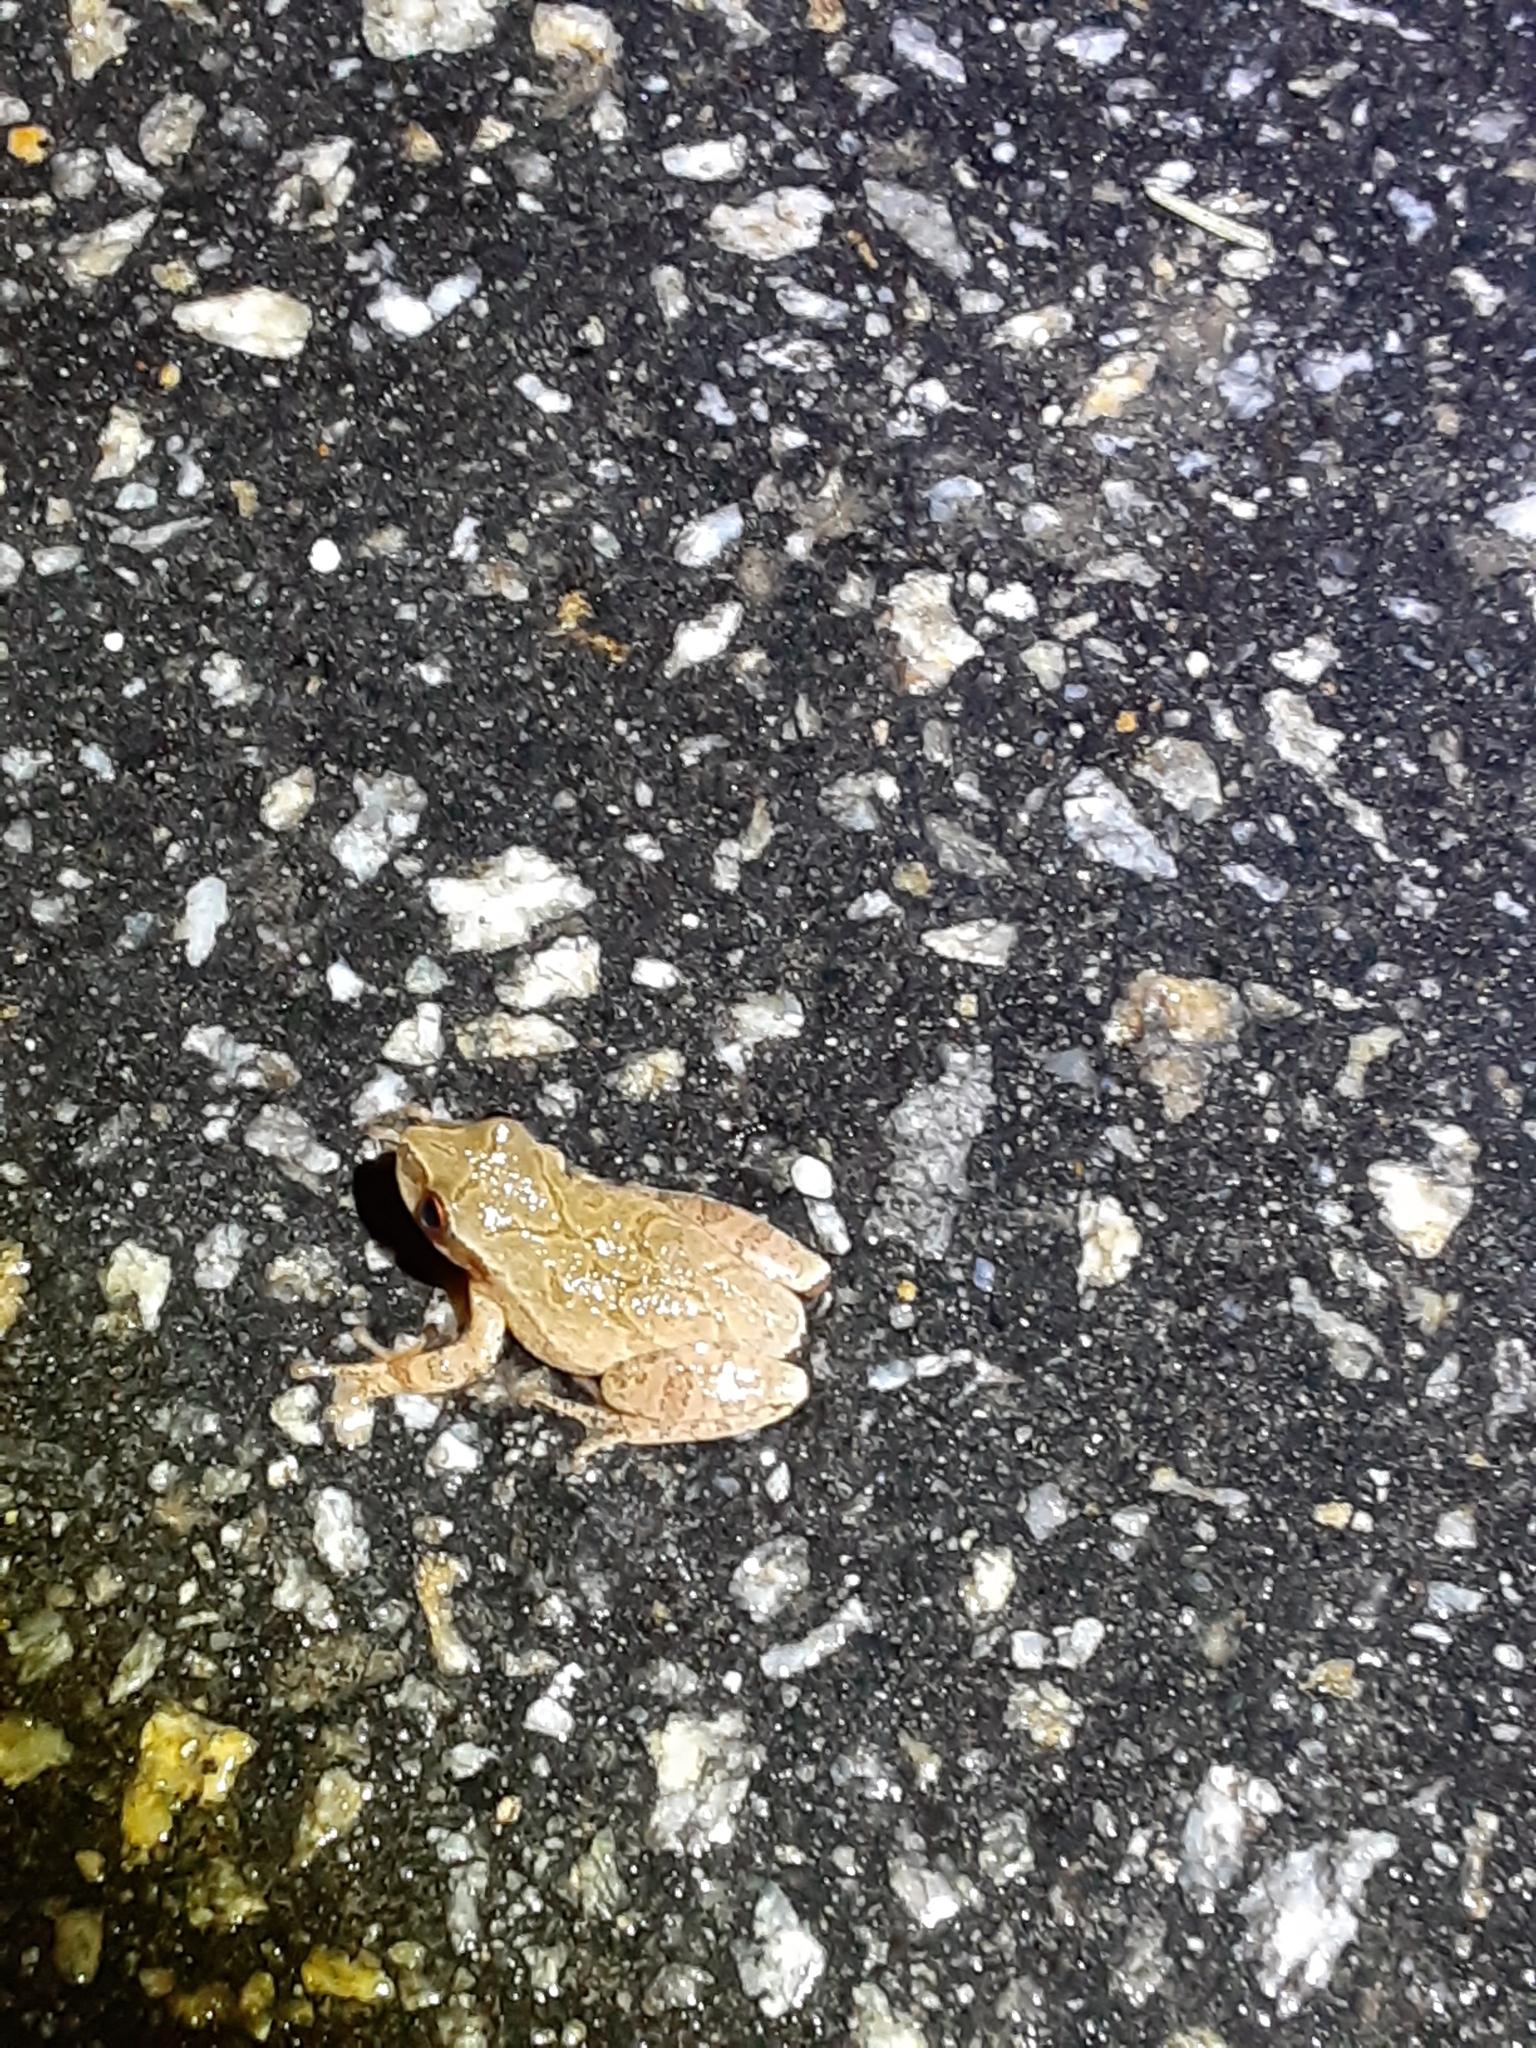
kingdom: Animalia
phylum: Chordata
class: Amphibia
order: Anura
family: Hylidae
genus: Pseudacris
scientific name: Pseudacris crucifer
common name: Spring peeper
